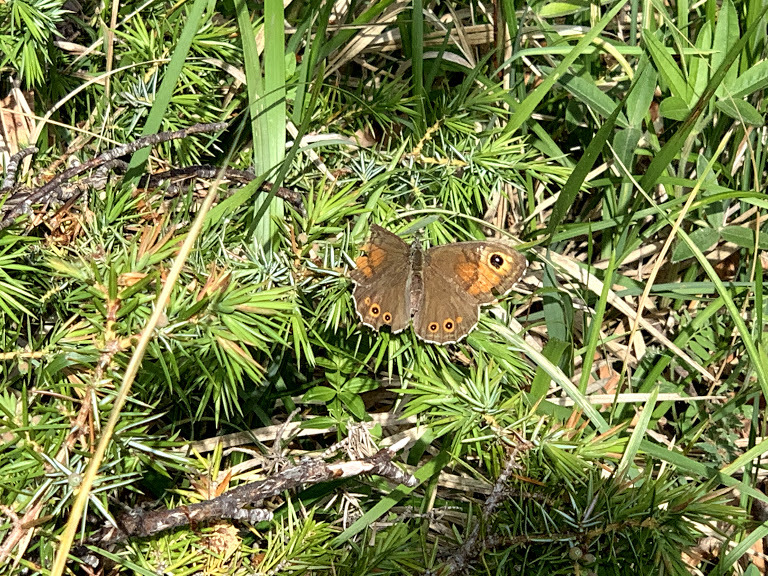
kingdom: Animalia
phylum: Arthropoda
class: Insecta
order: Lepidoptera
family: Nymphalidae
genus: Pararge
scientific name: Pararge Lasiommata maera
